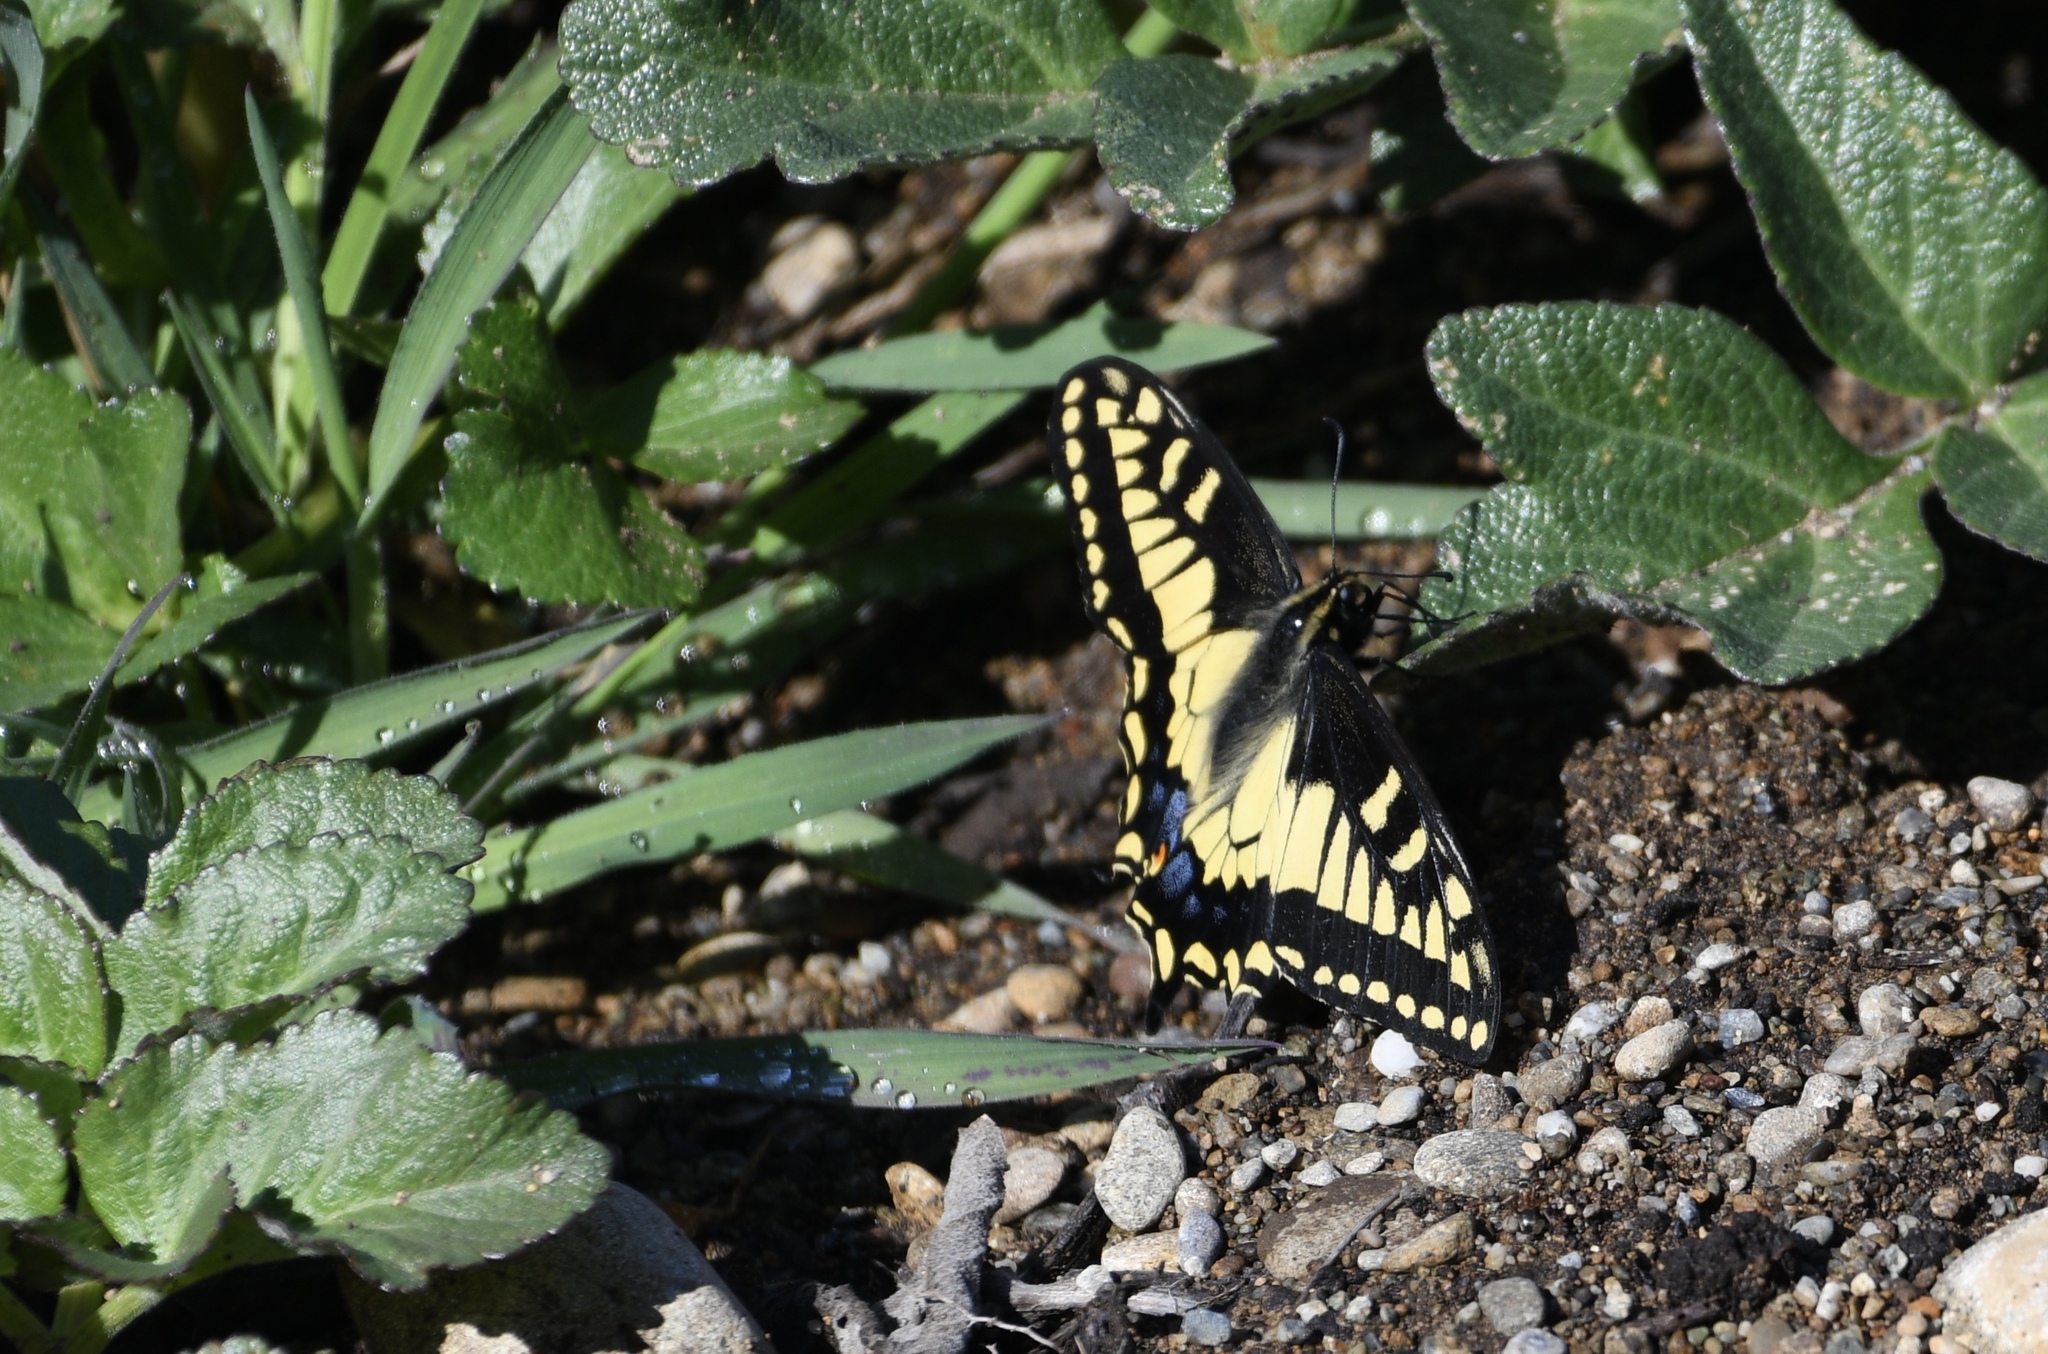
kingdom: Animalia
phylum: Arthropoda
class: Insecta
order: Lepidoptera
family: Papilionidae
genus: Papilio
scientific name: Papilio zelicaon
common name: Anise swallowtail
